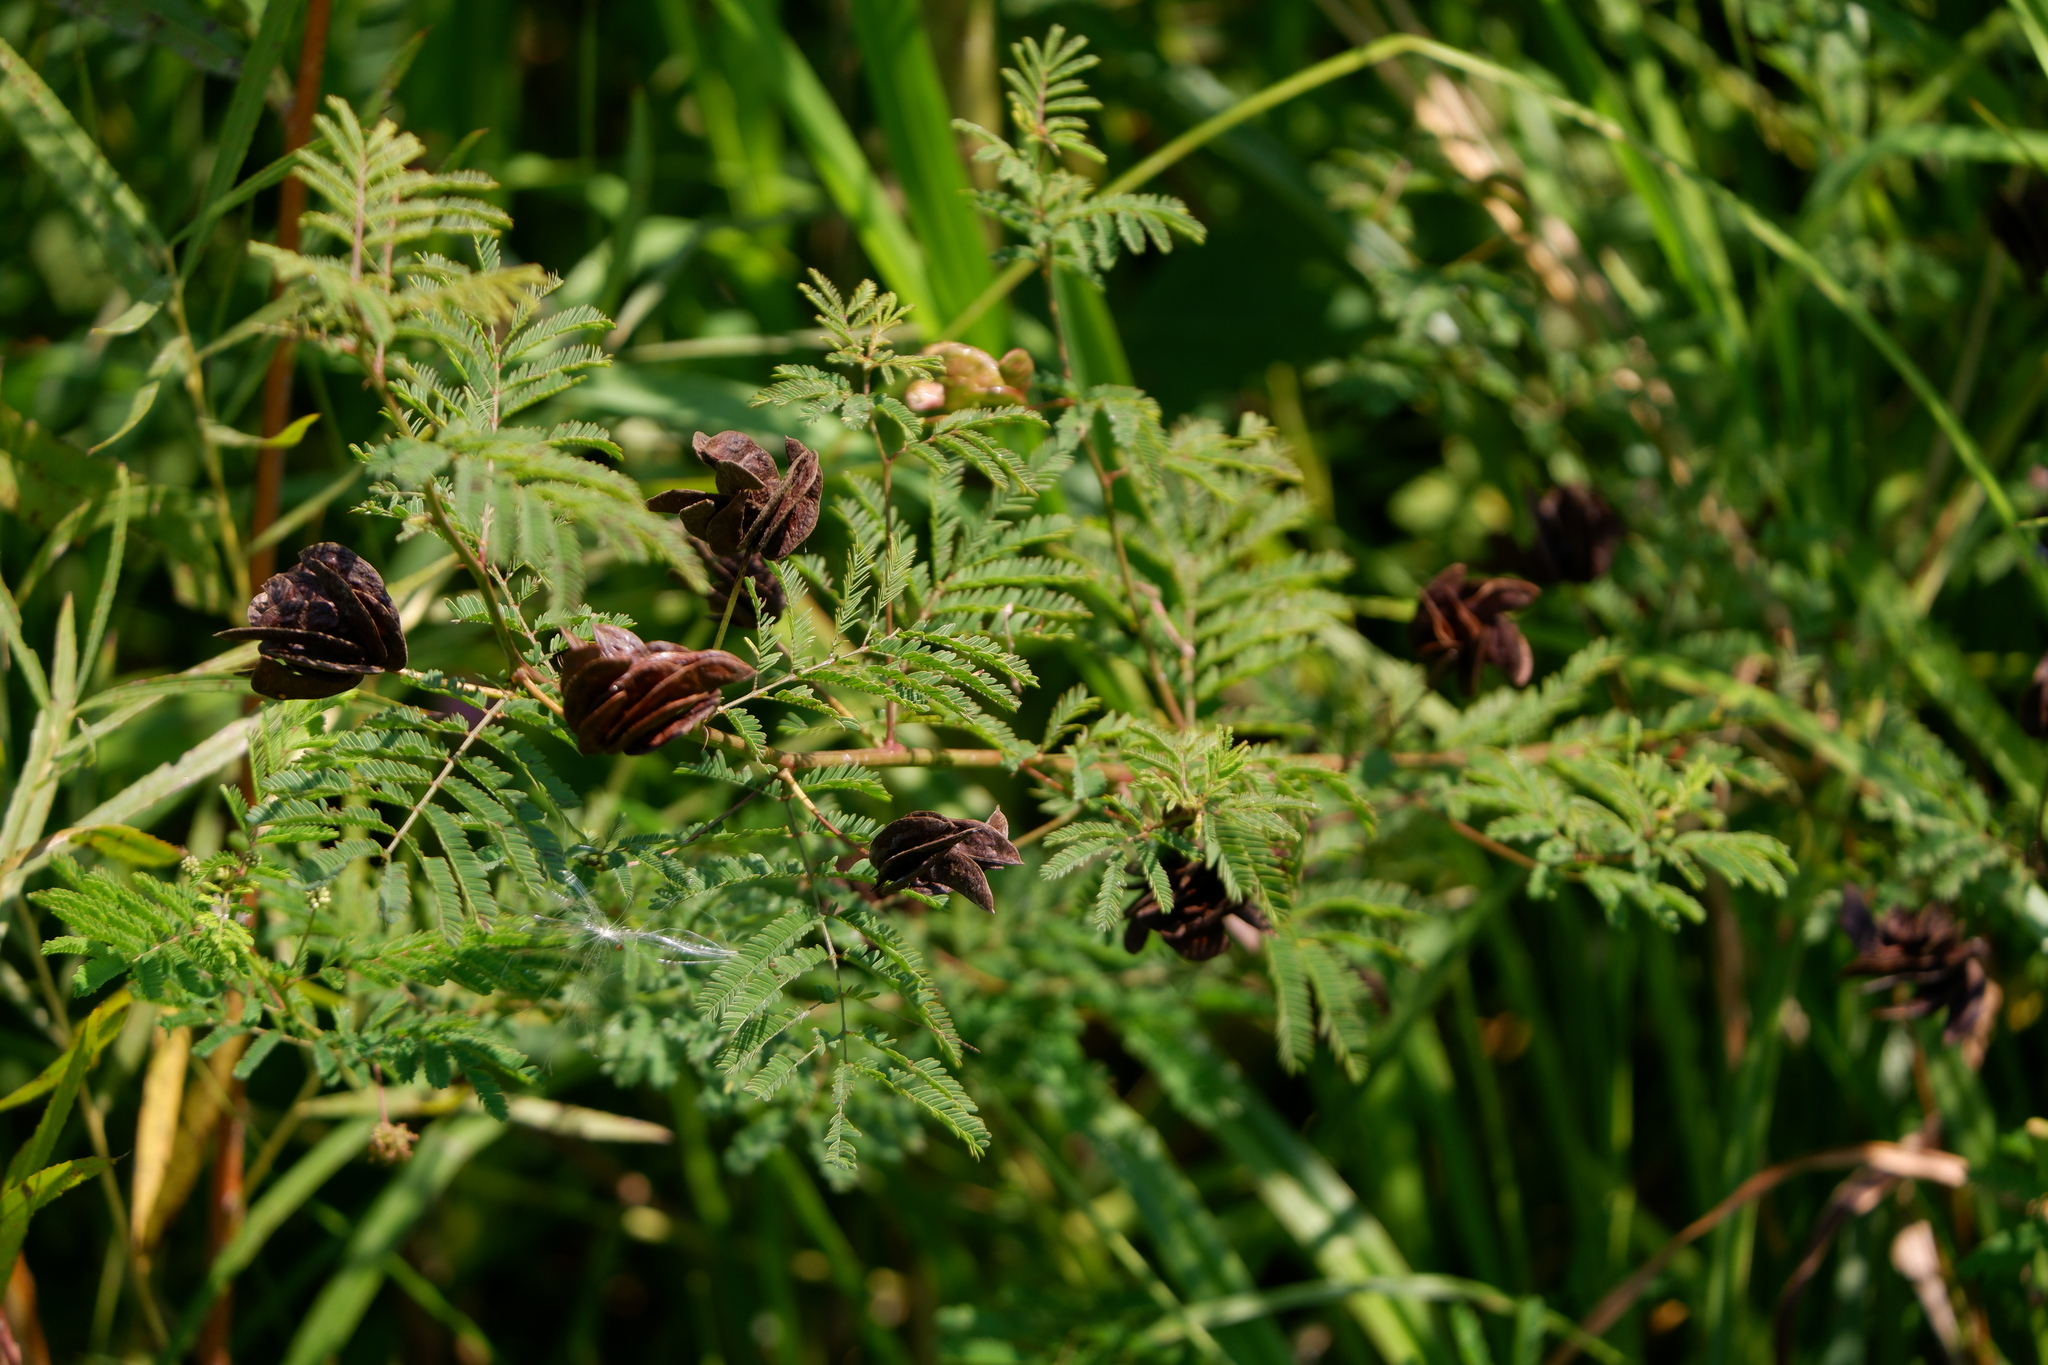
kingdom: Plantae
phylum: Tracheophyta
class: Magnoliopsida
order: Fabales
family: Fabaceae
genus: Desmanthus
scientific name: Desmanthus illinoensis
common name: Illinois bundle-flower
